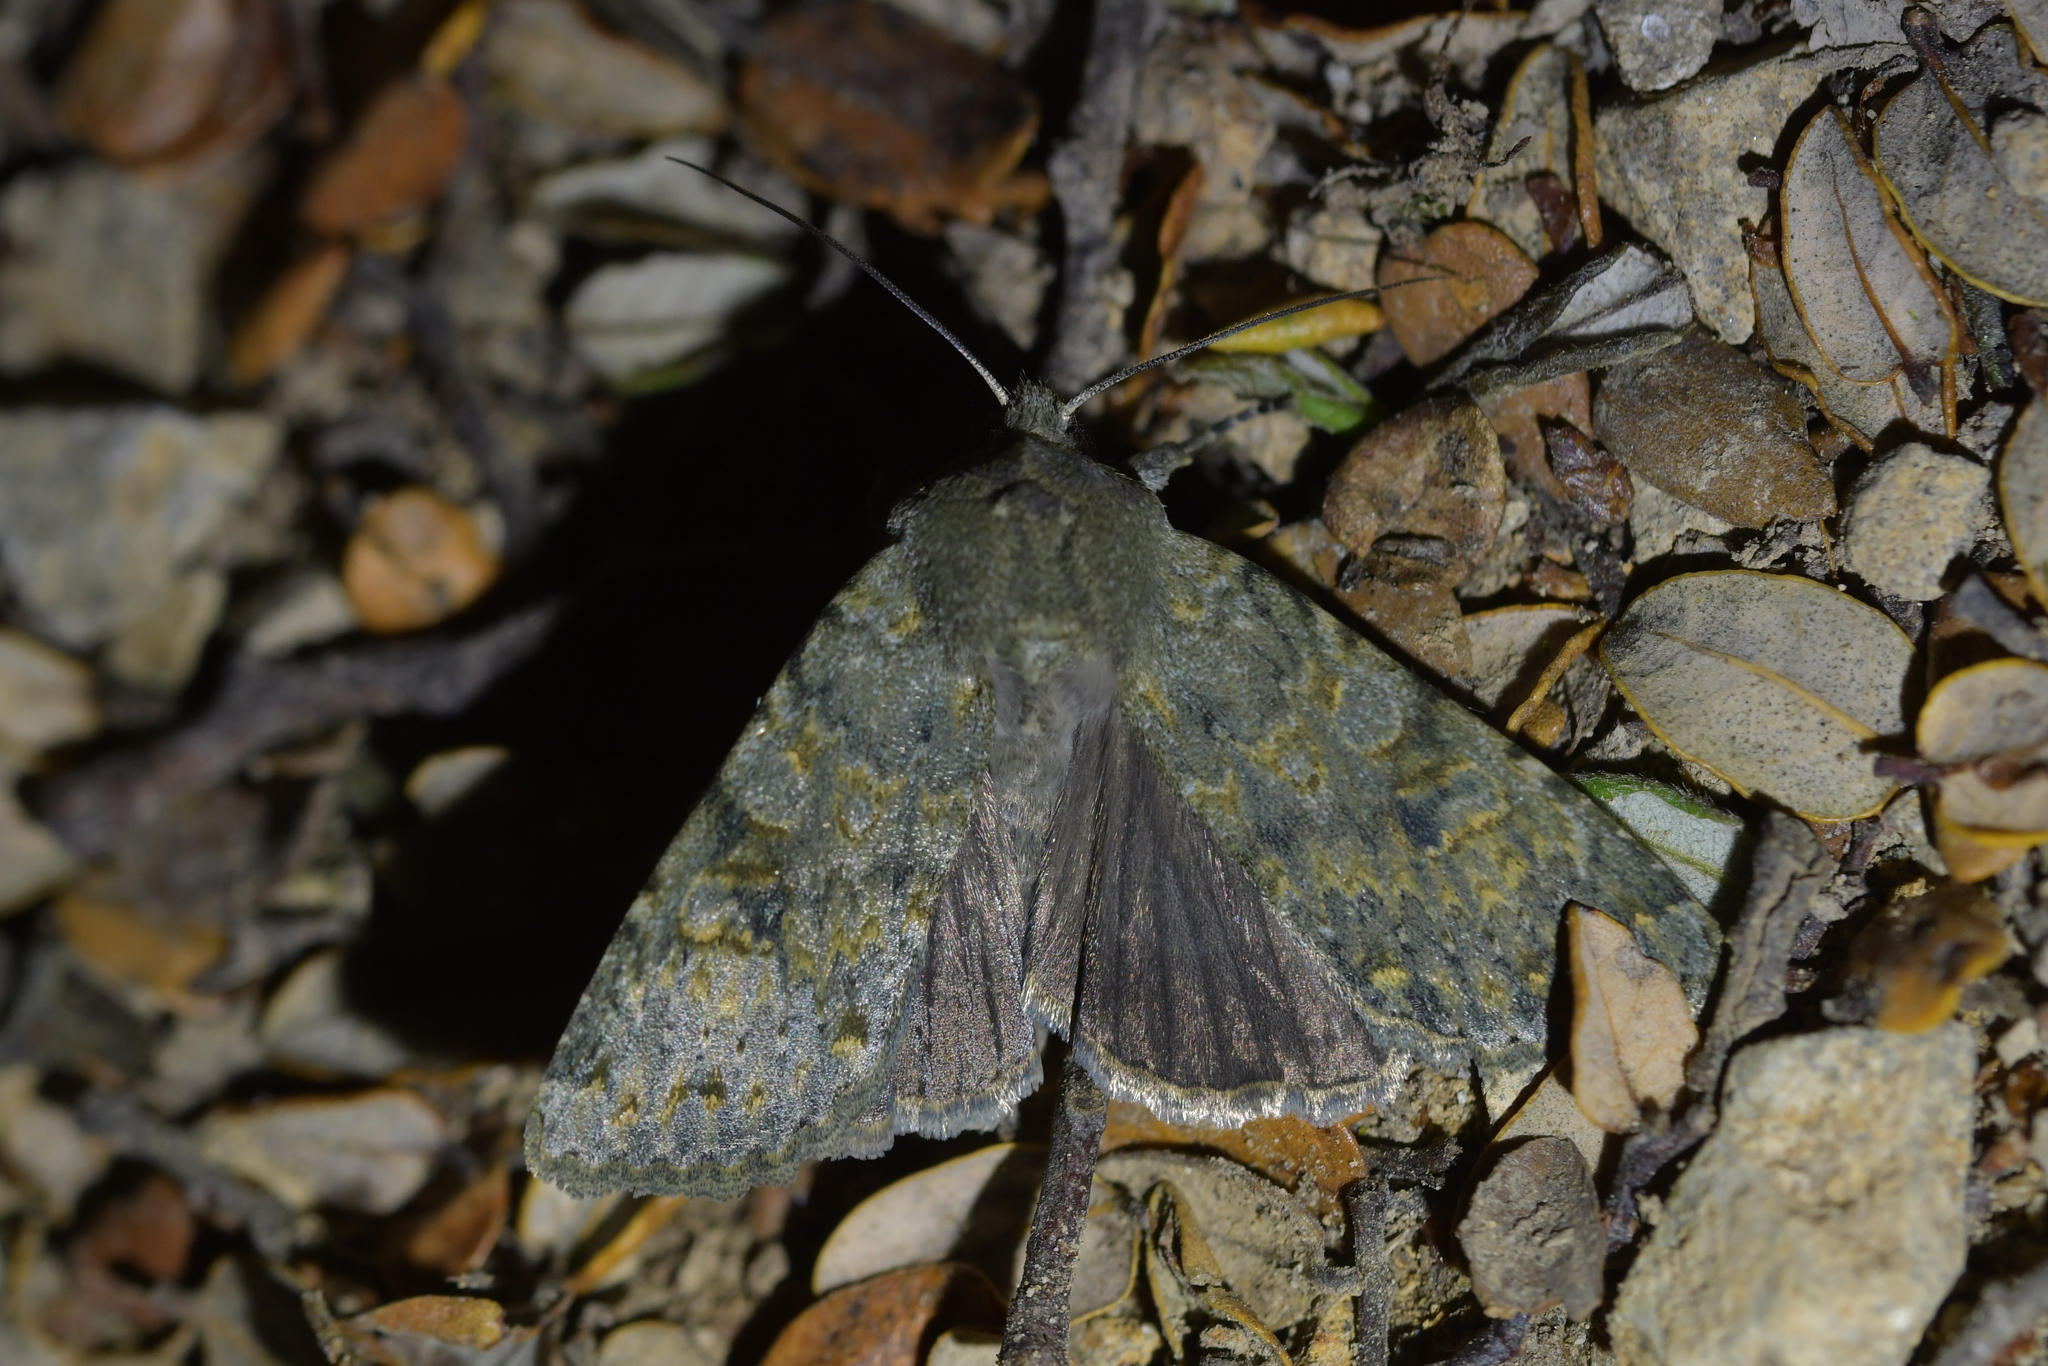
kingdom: Animalia
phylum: Arthropoda
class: Insecta
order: Lepidoptera
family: Noctuidae
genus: Ichneutica
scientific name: Ichneutica
